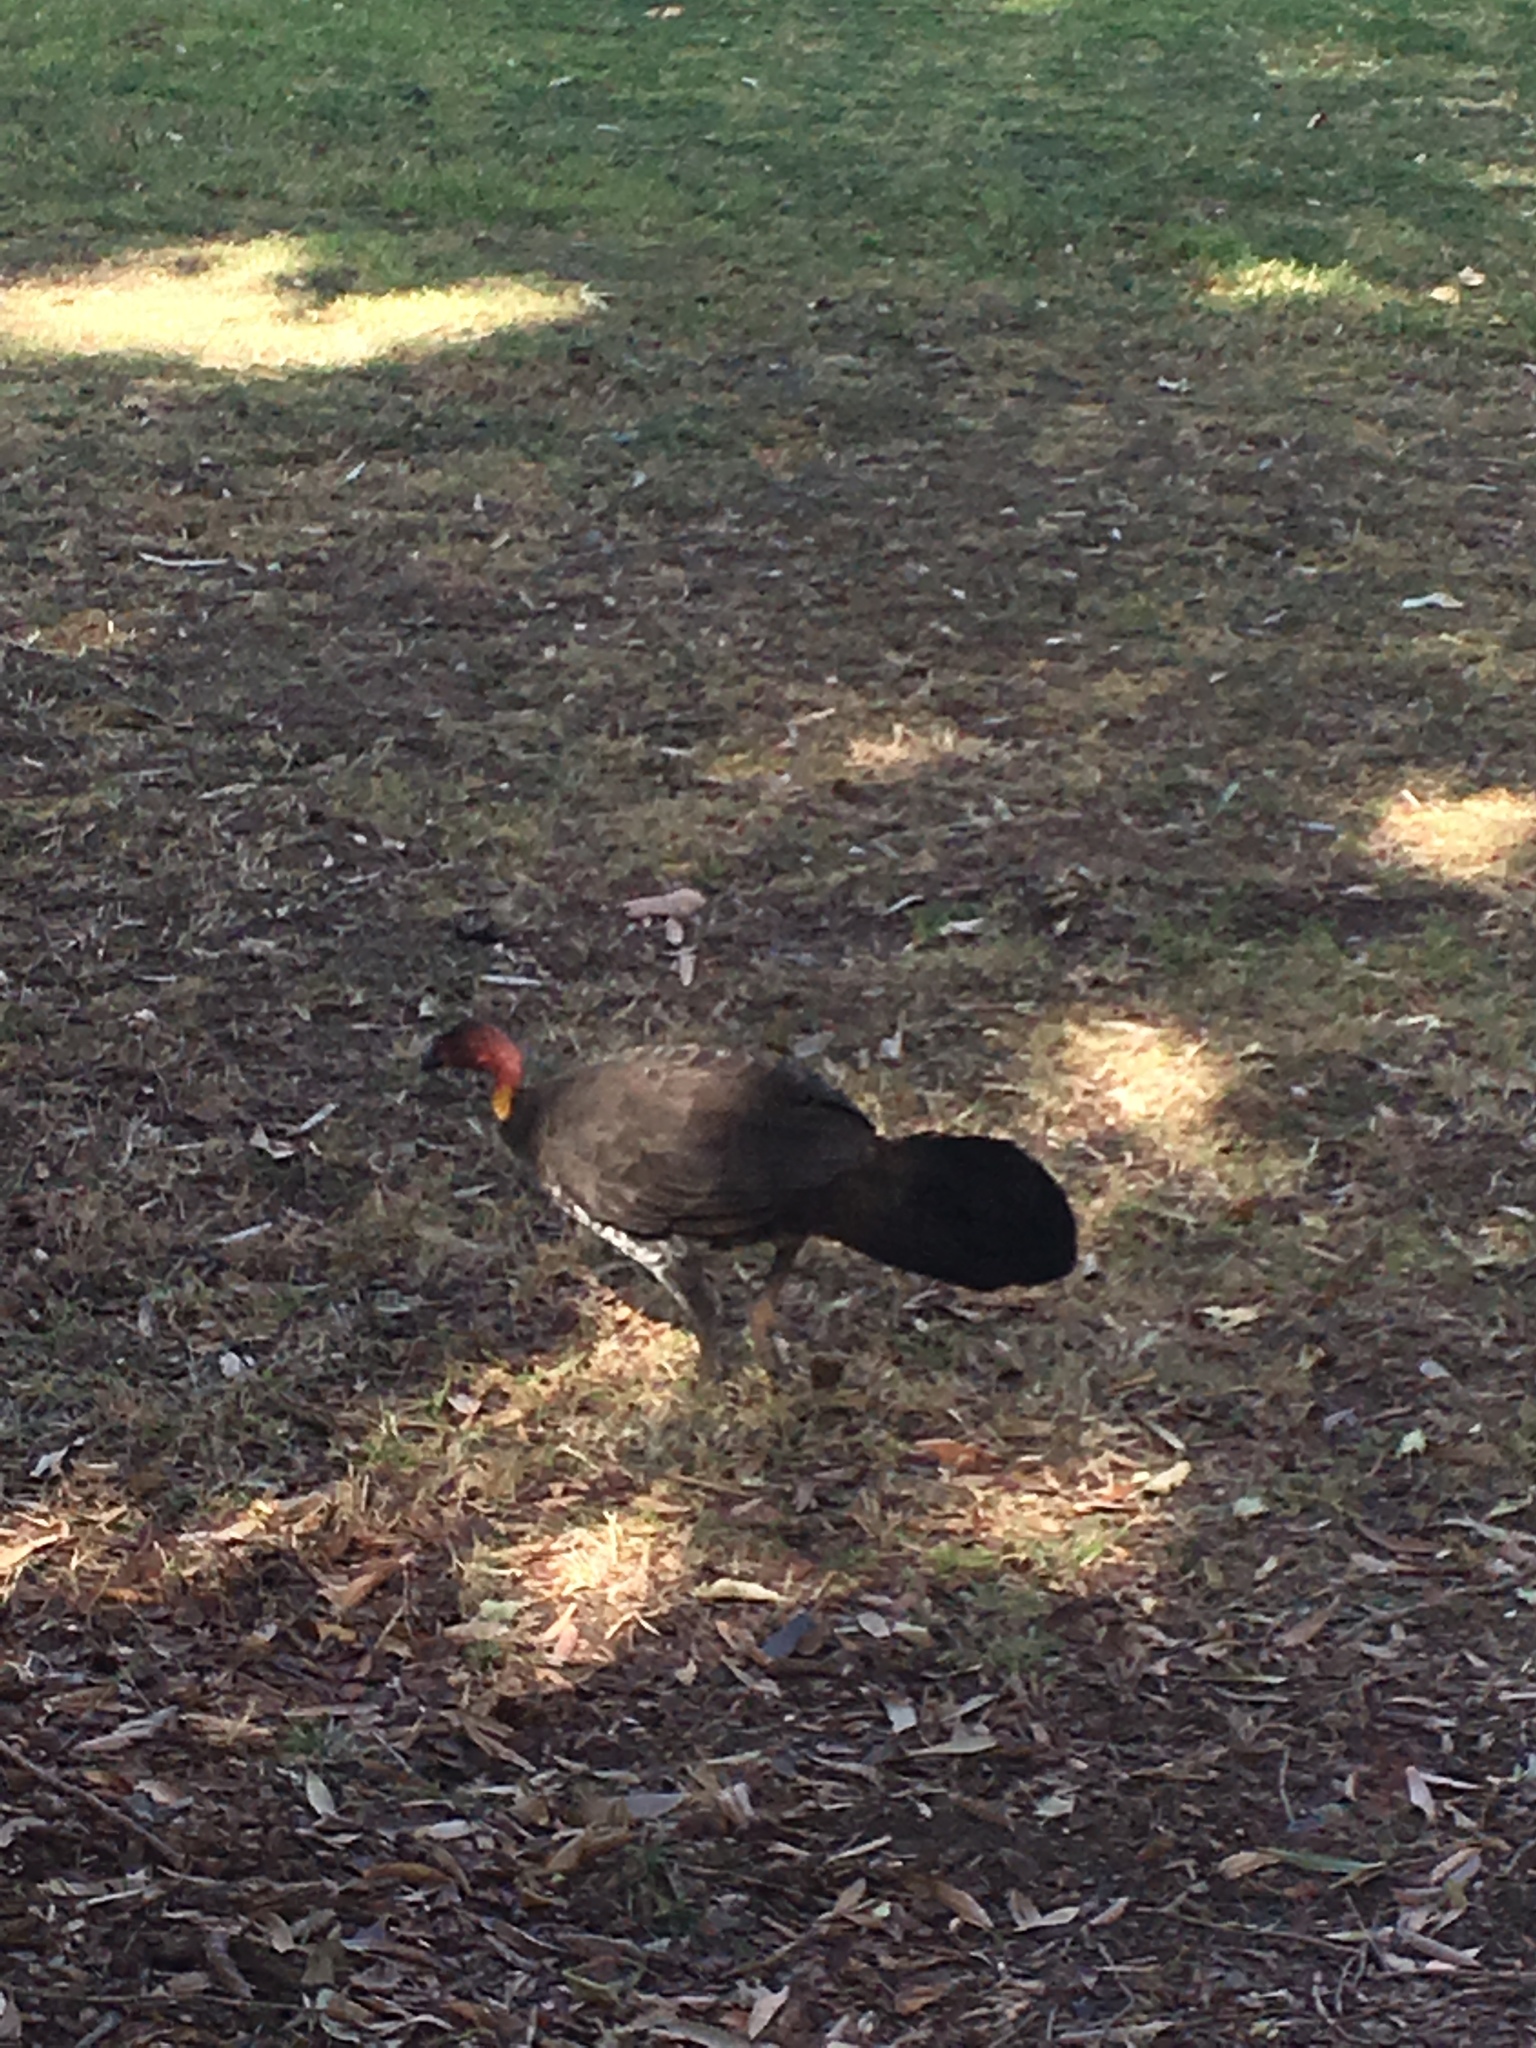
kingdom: Animalia
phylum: Chordata
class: Aves
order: Galliformes
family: Megapodiidae
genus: Alectura
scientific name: Alectura lathami
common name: Australian brushturkey
